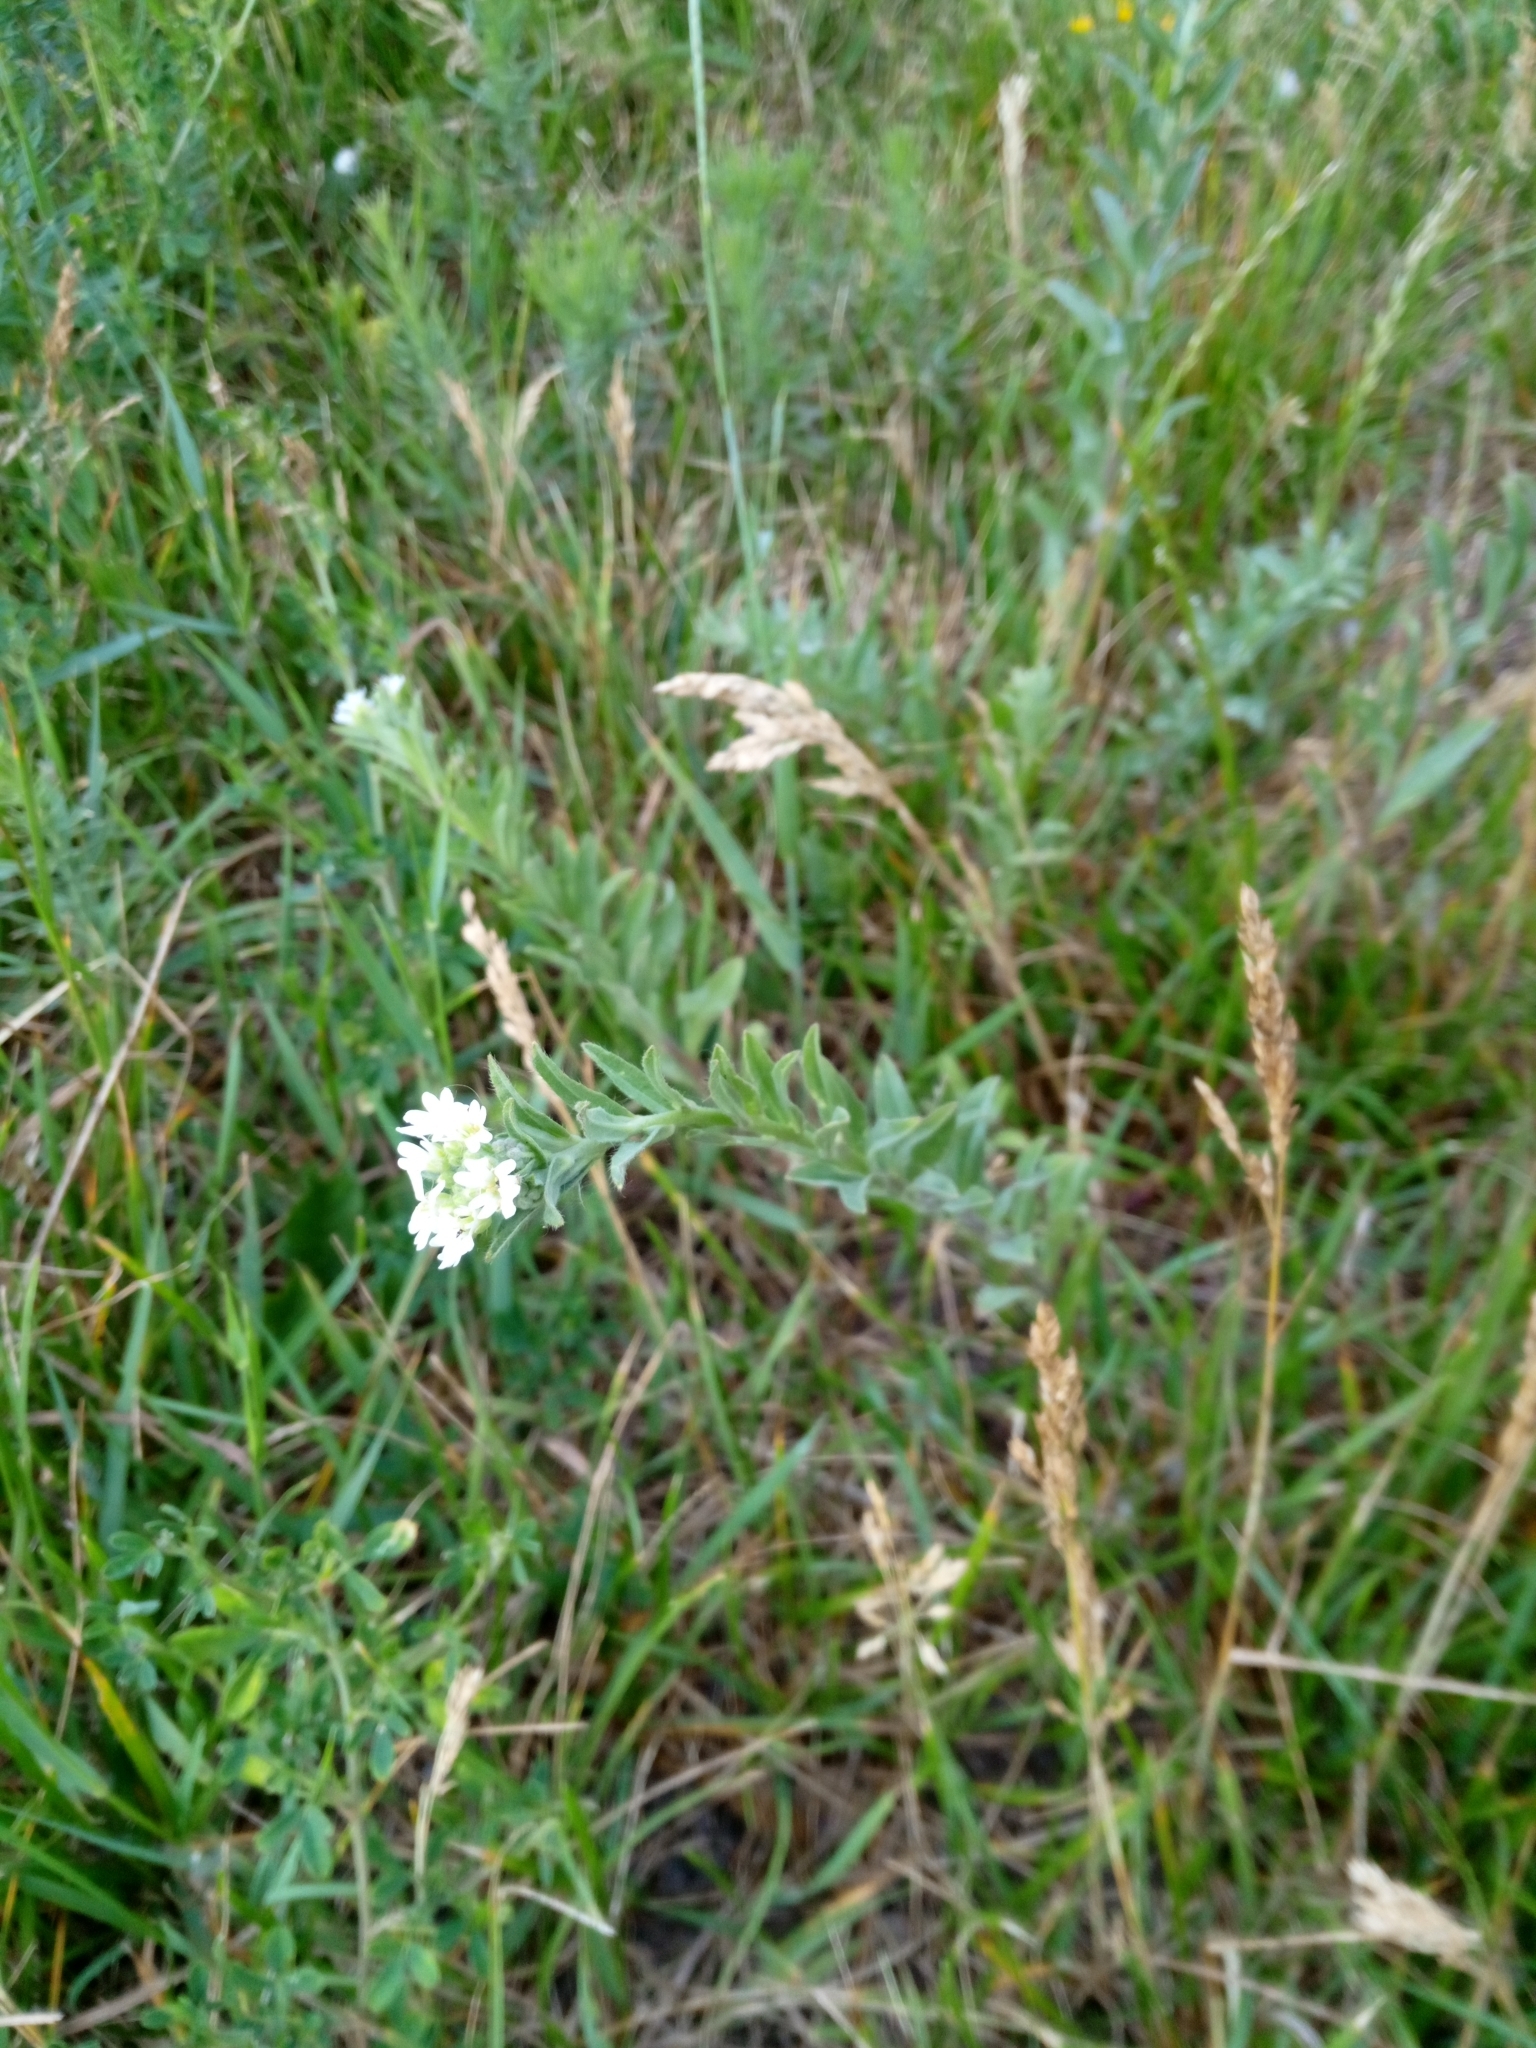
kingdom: Plantae
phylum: Tracheophyta
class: Magnoliopsida
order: Brassicales
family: Brassicaceae
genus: Berteroa
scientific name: Berteroa incana
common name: Hoary alison
